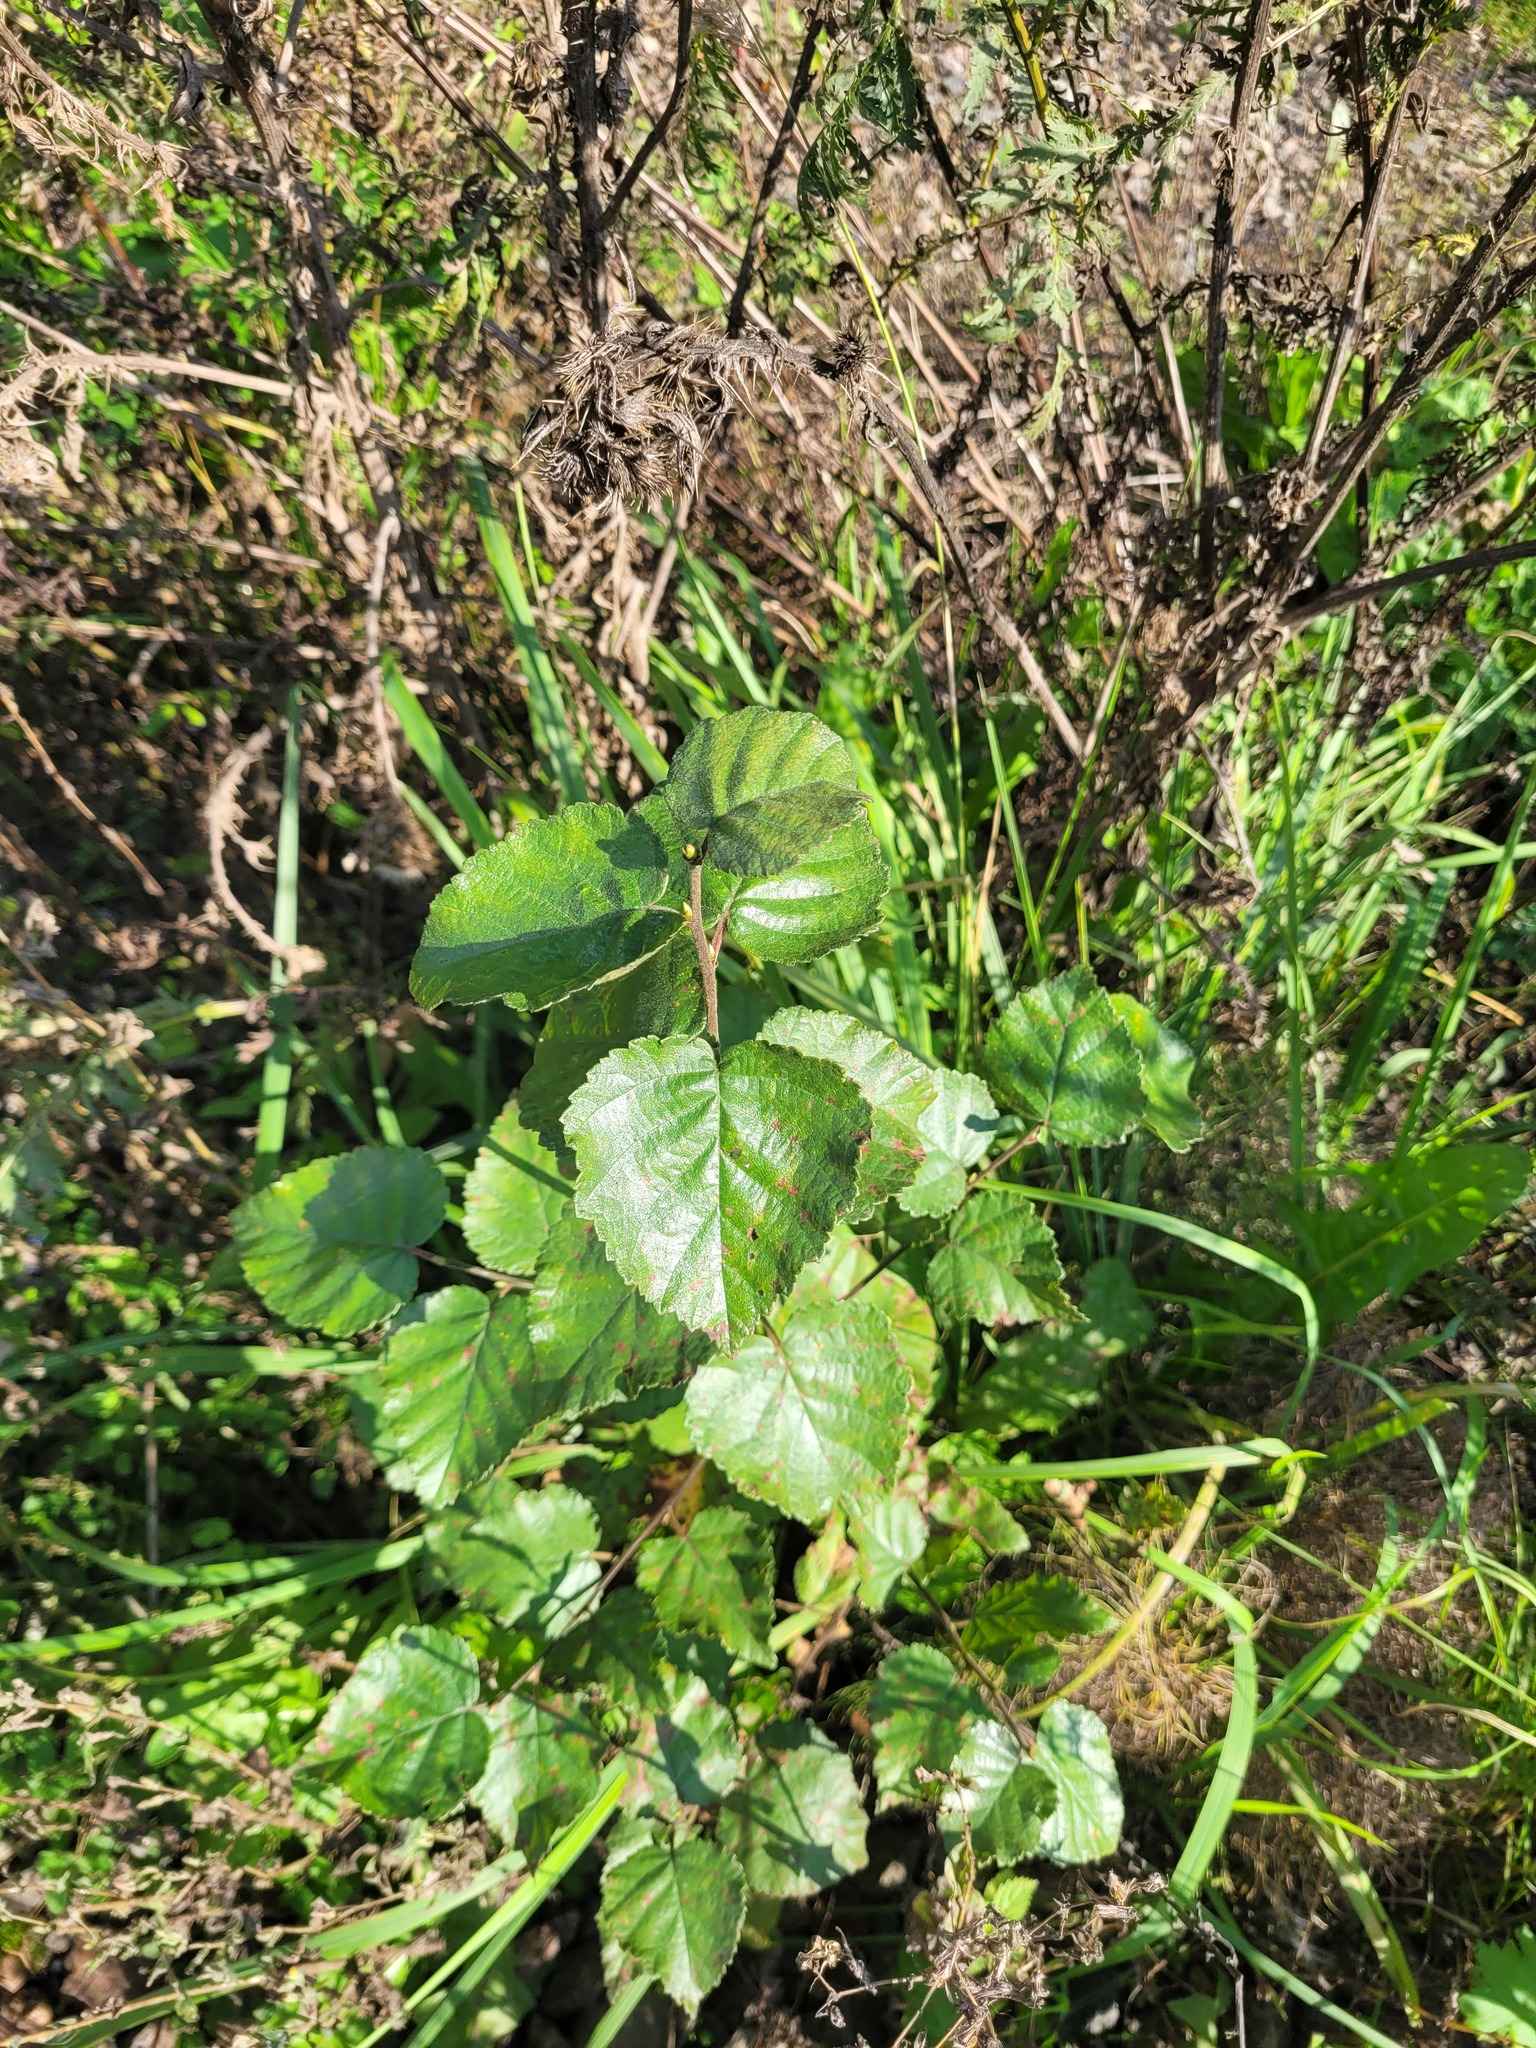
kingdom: Plantae
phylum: Tracheophyta
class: Magnoliopsida
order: Fagales
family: Betulaceae
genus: Betula
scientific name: Betula pubescens
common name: Downy birch
